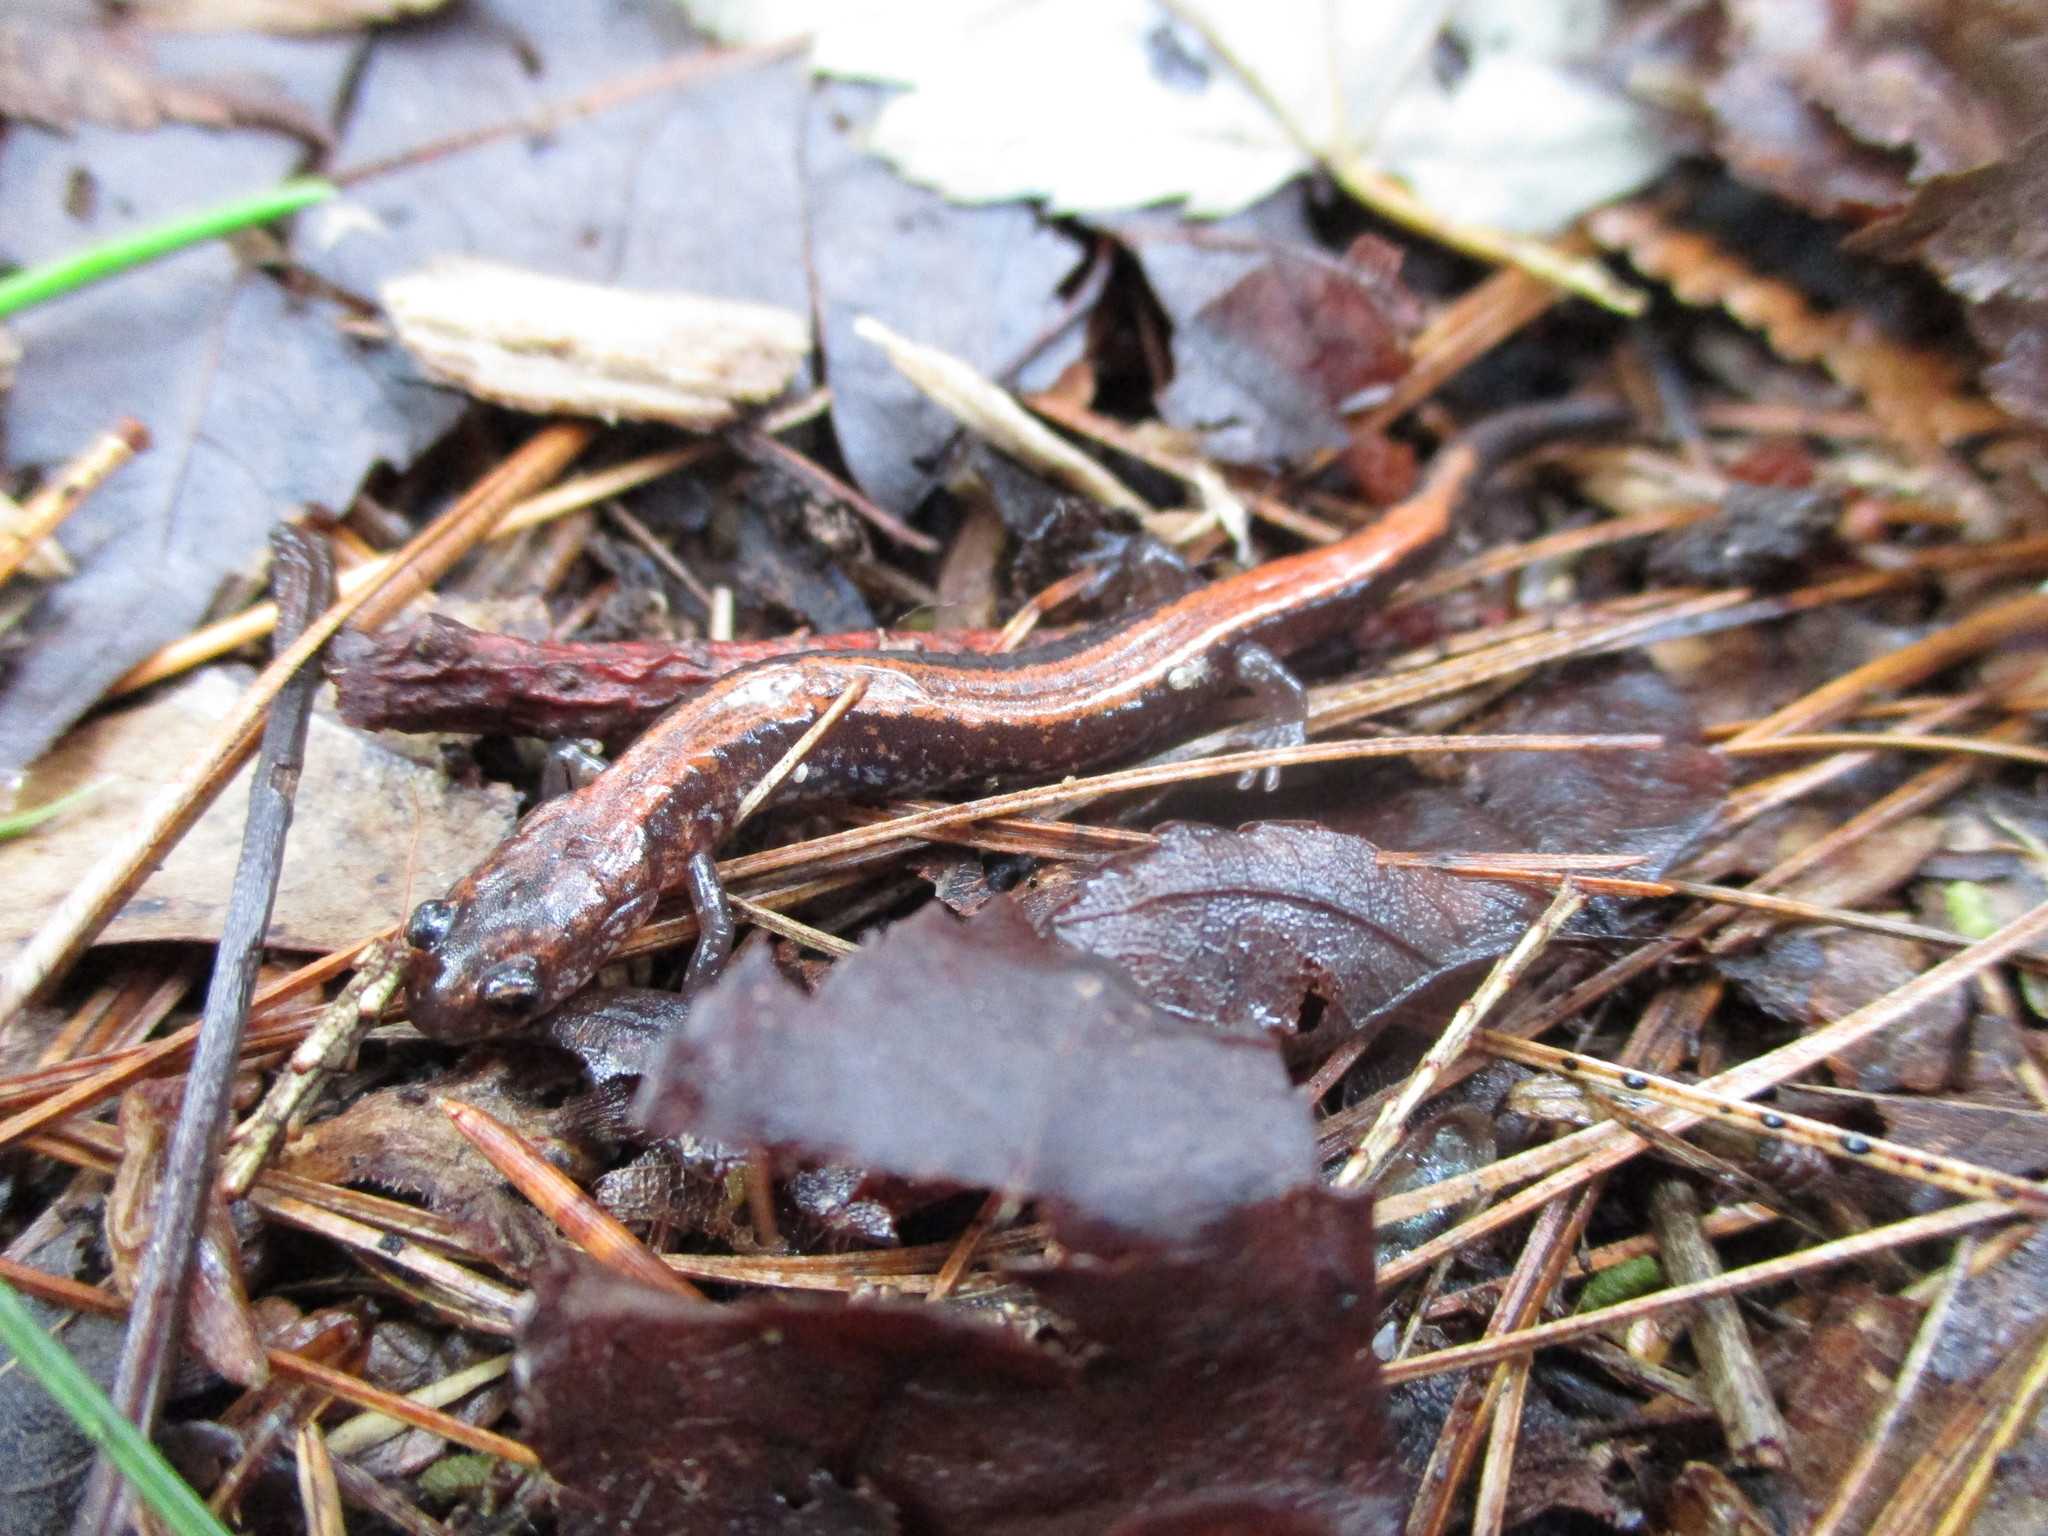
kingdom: Animalia
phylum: Chordata
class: Amphibia
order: Caudata
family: Plethodontidae
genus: Plethodon
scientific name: Plethodon cinereus
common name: Redback salamander
